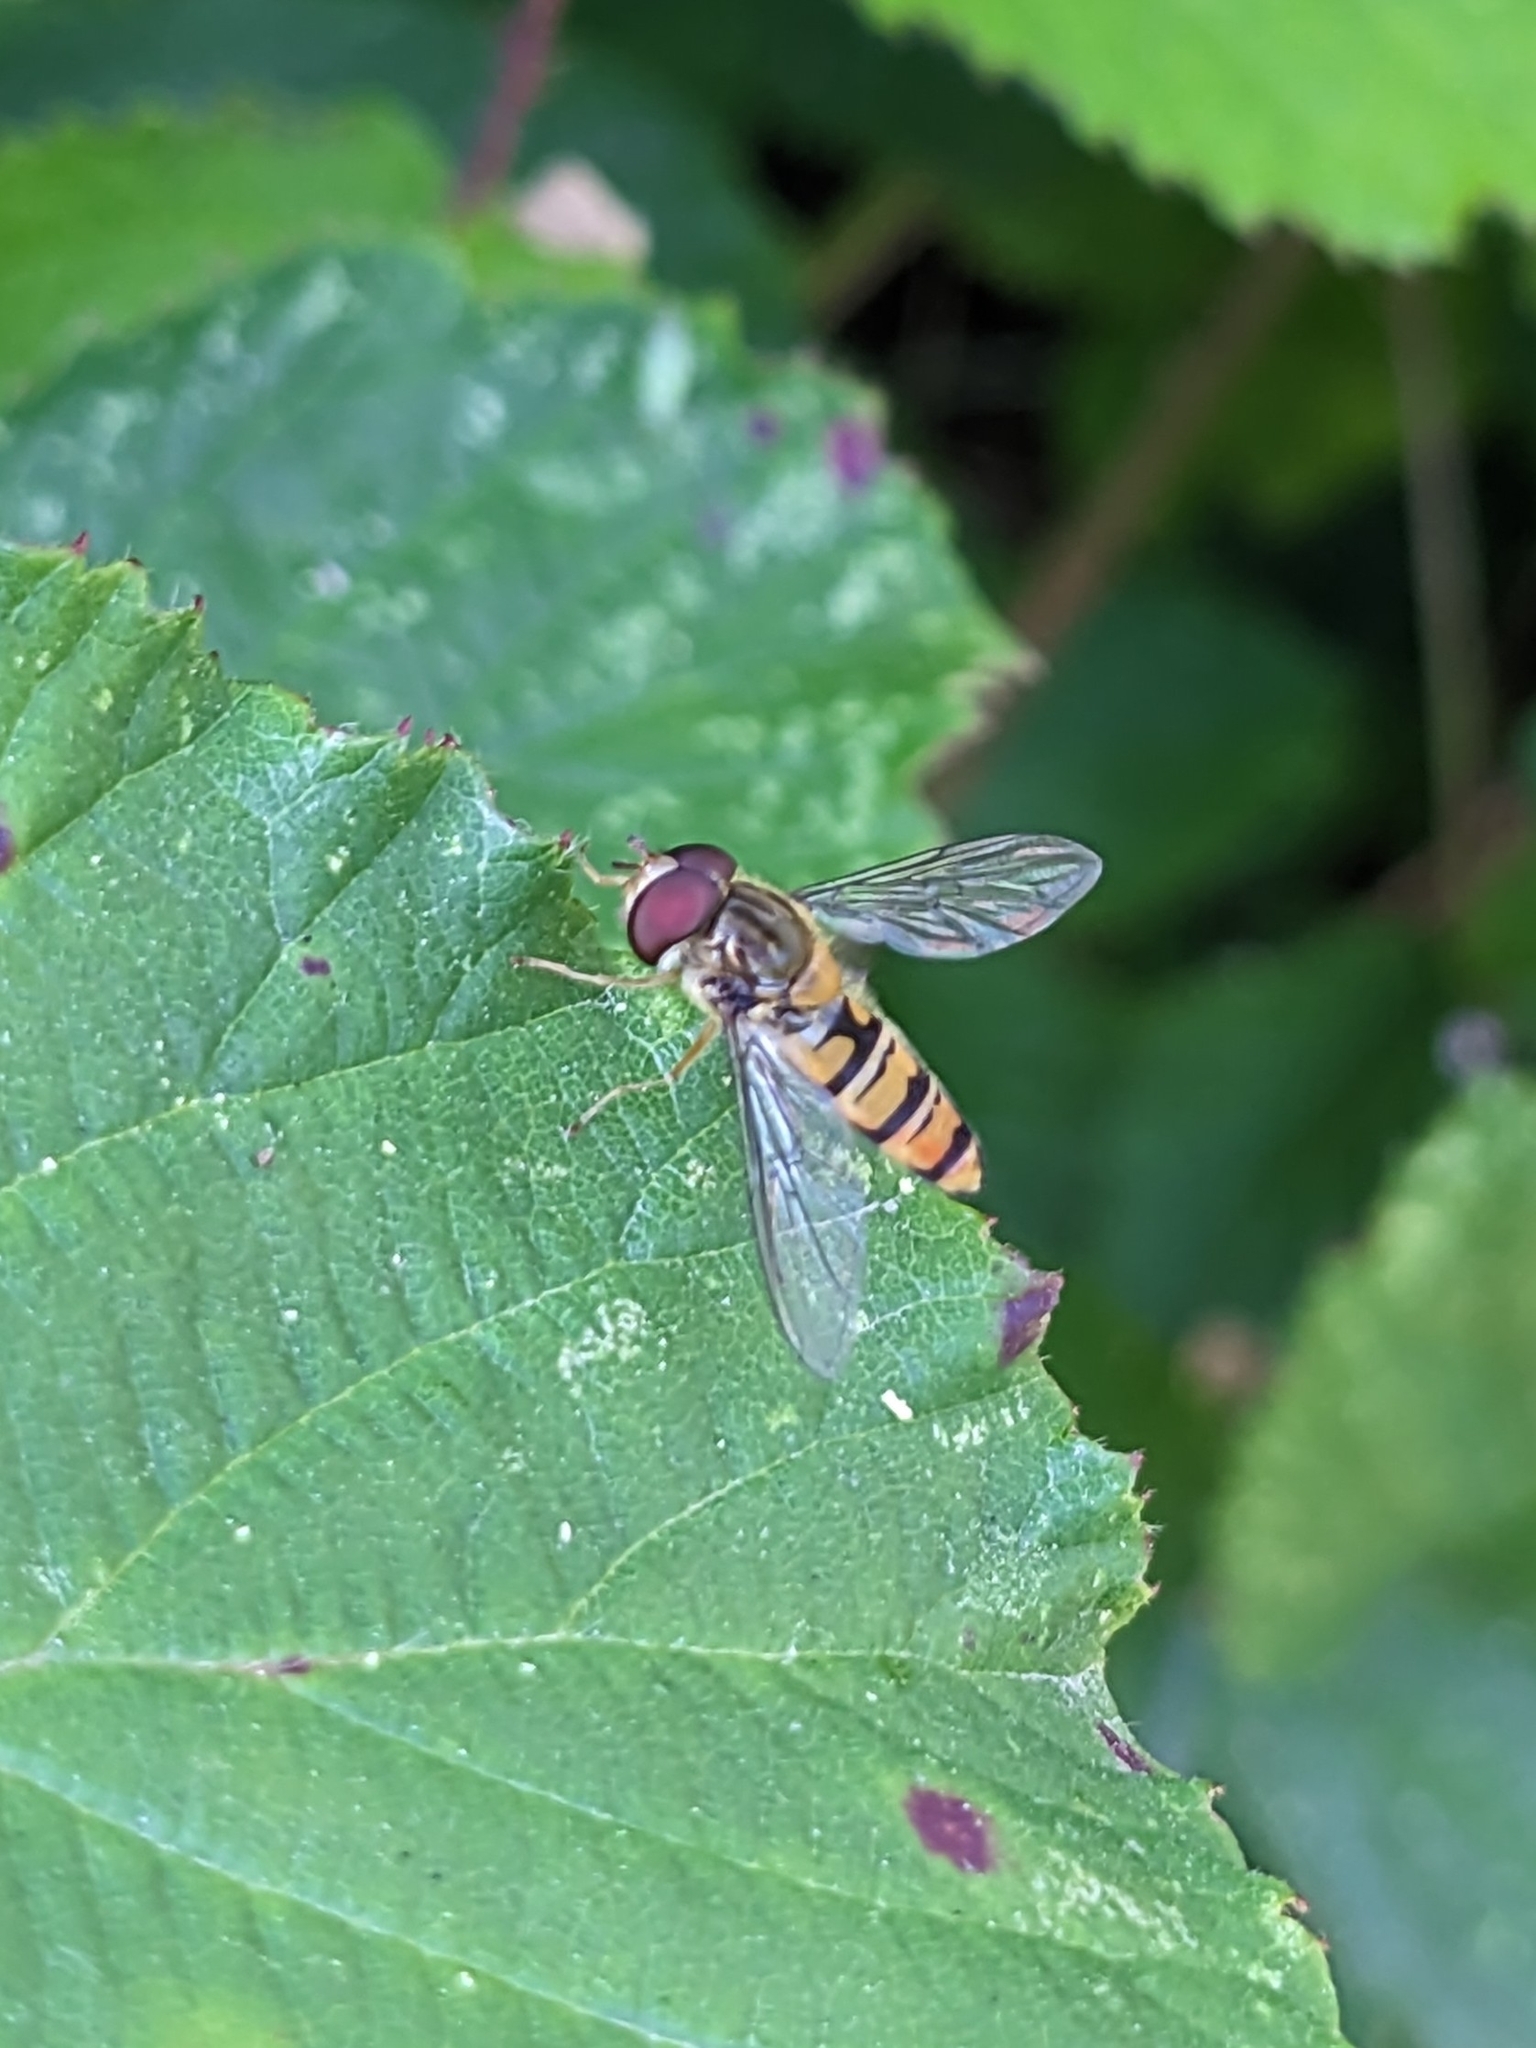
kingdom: Animalia
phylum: Arthropoda
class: Insecta
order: Diptera
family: Syrphidae
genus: Episyrphus
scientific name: Episyrphus balteatus
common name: Marmalade hoverfly
